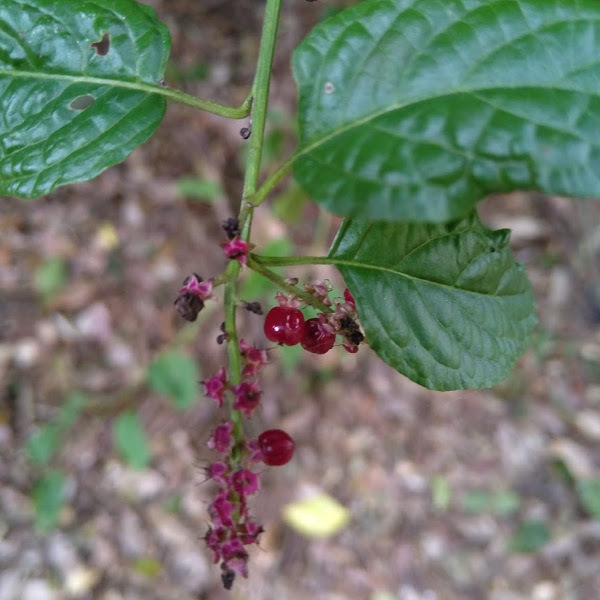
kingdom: Plantae
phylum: Tracheophyta
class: Magnoliopsida
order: Caryophyllales
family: Amaranthaceae
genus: Deeringia
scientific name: Deeringia amaranthoides
